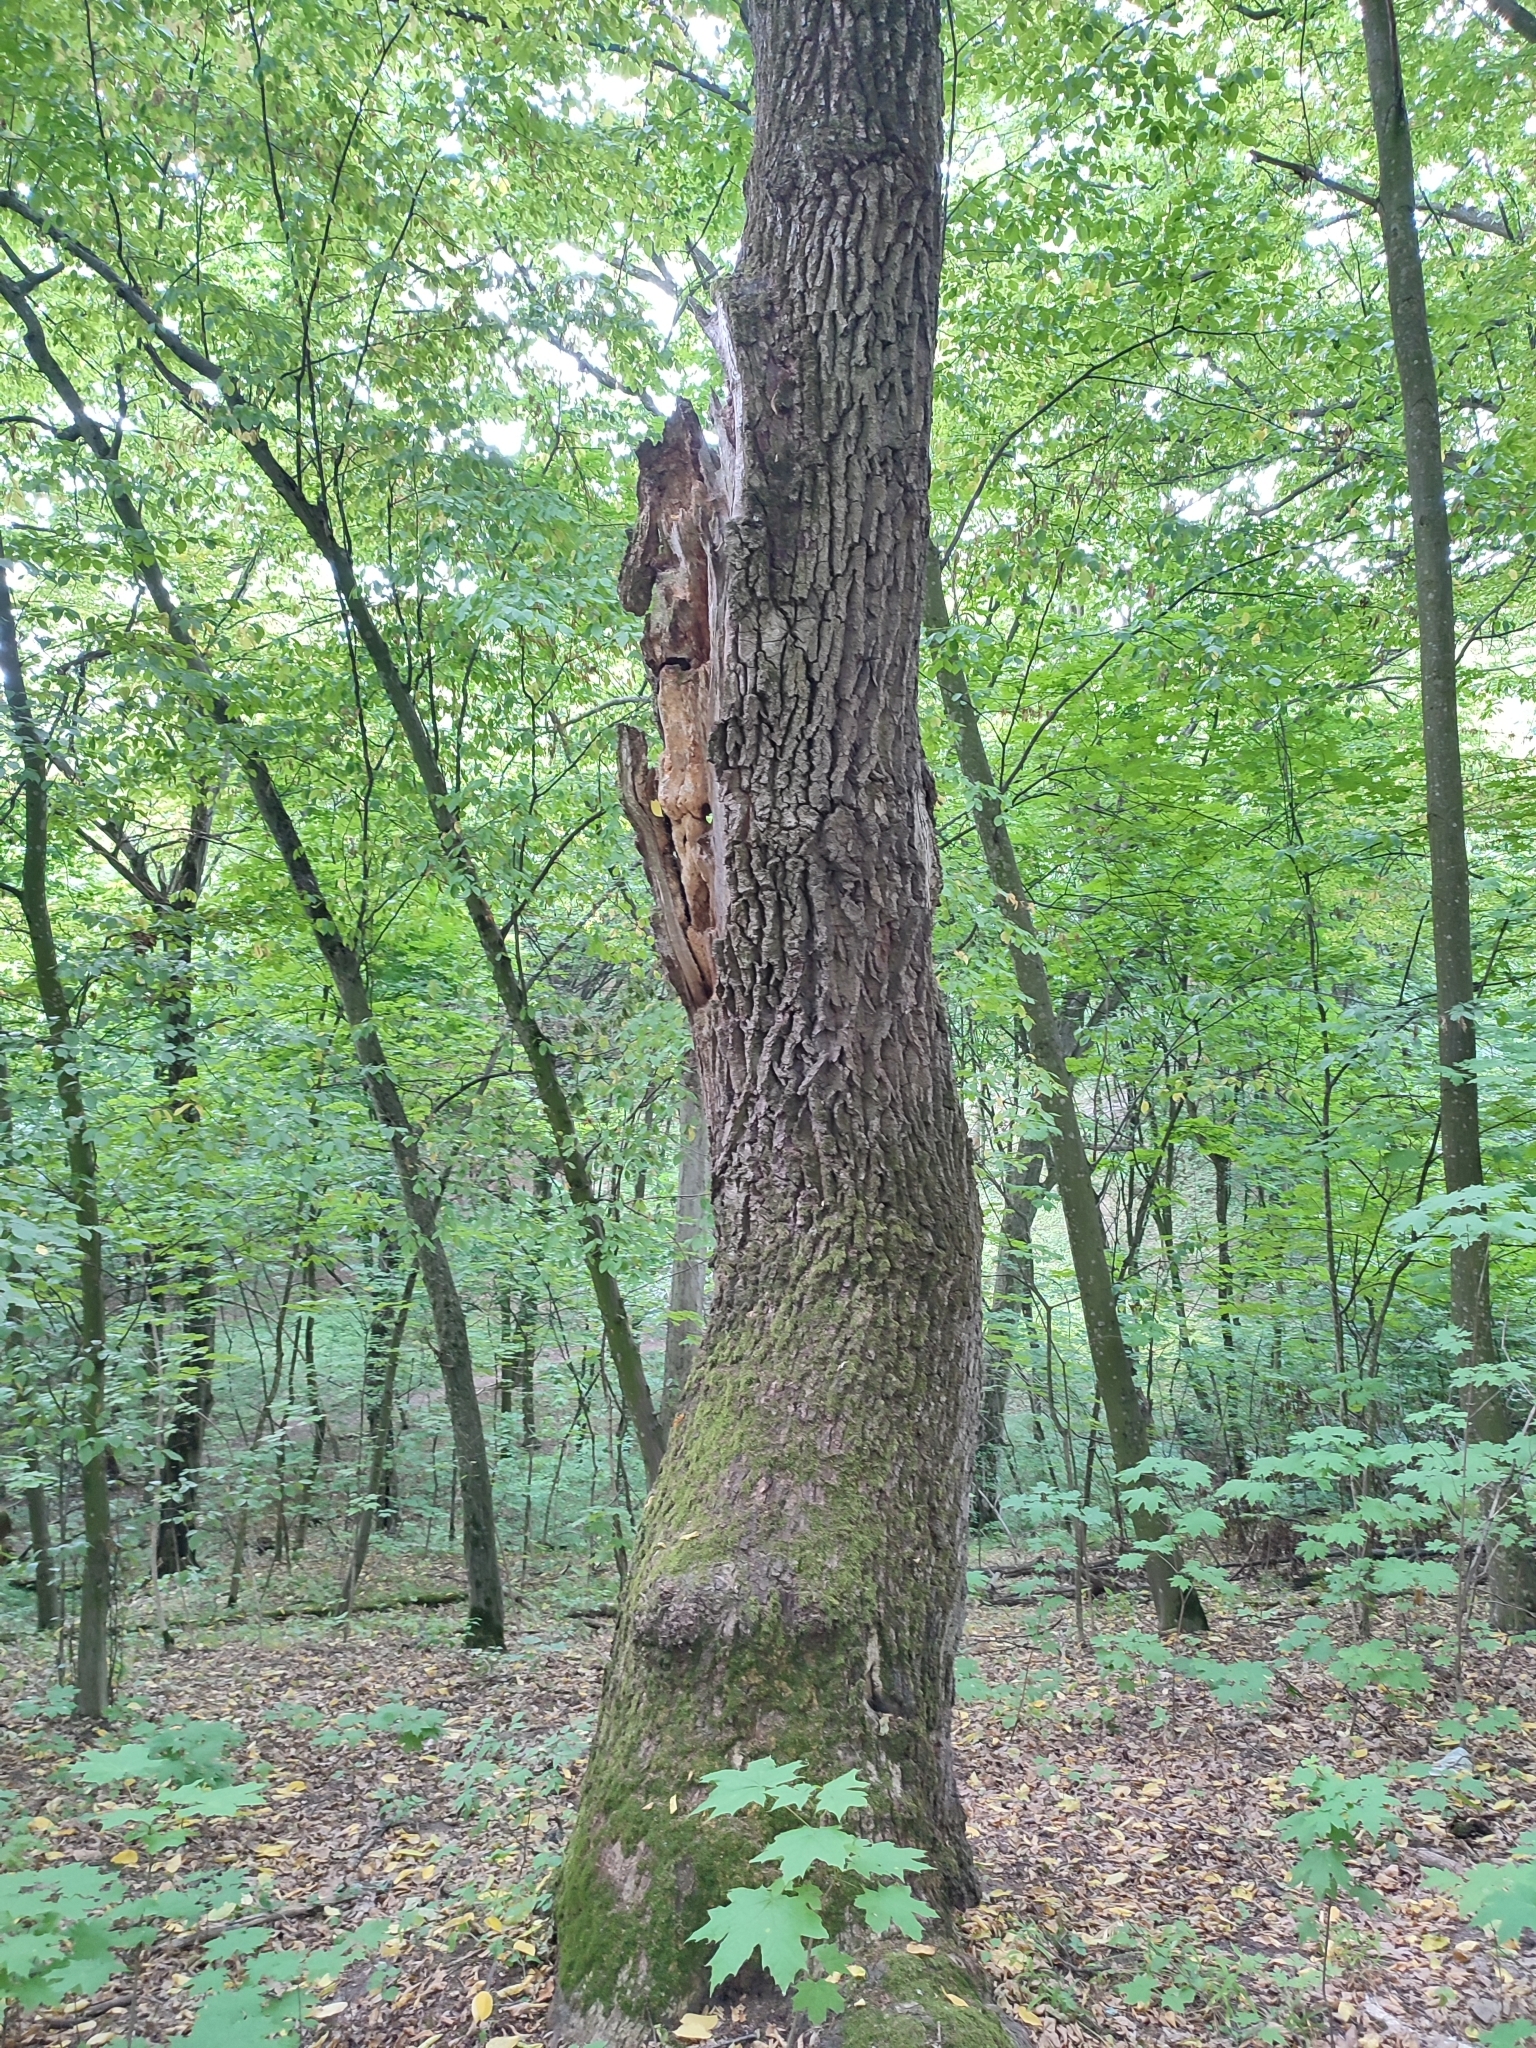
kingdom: Plantae
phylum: Tracheophyta
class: Magnoliopsida
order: Fagales
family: Fagaceae
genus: Quercus
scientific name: Quercus robur
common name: Pedunculate oak
